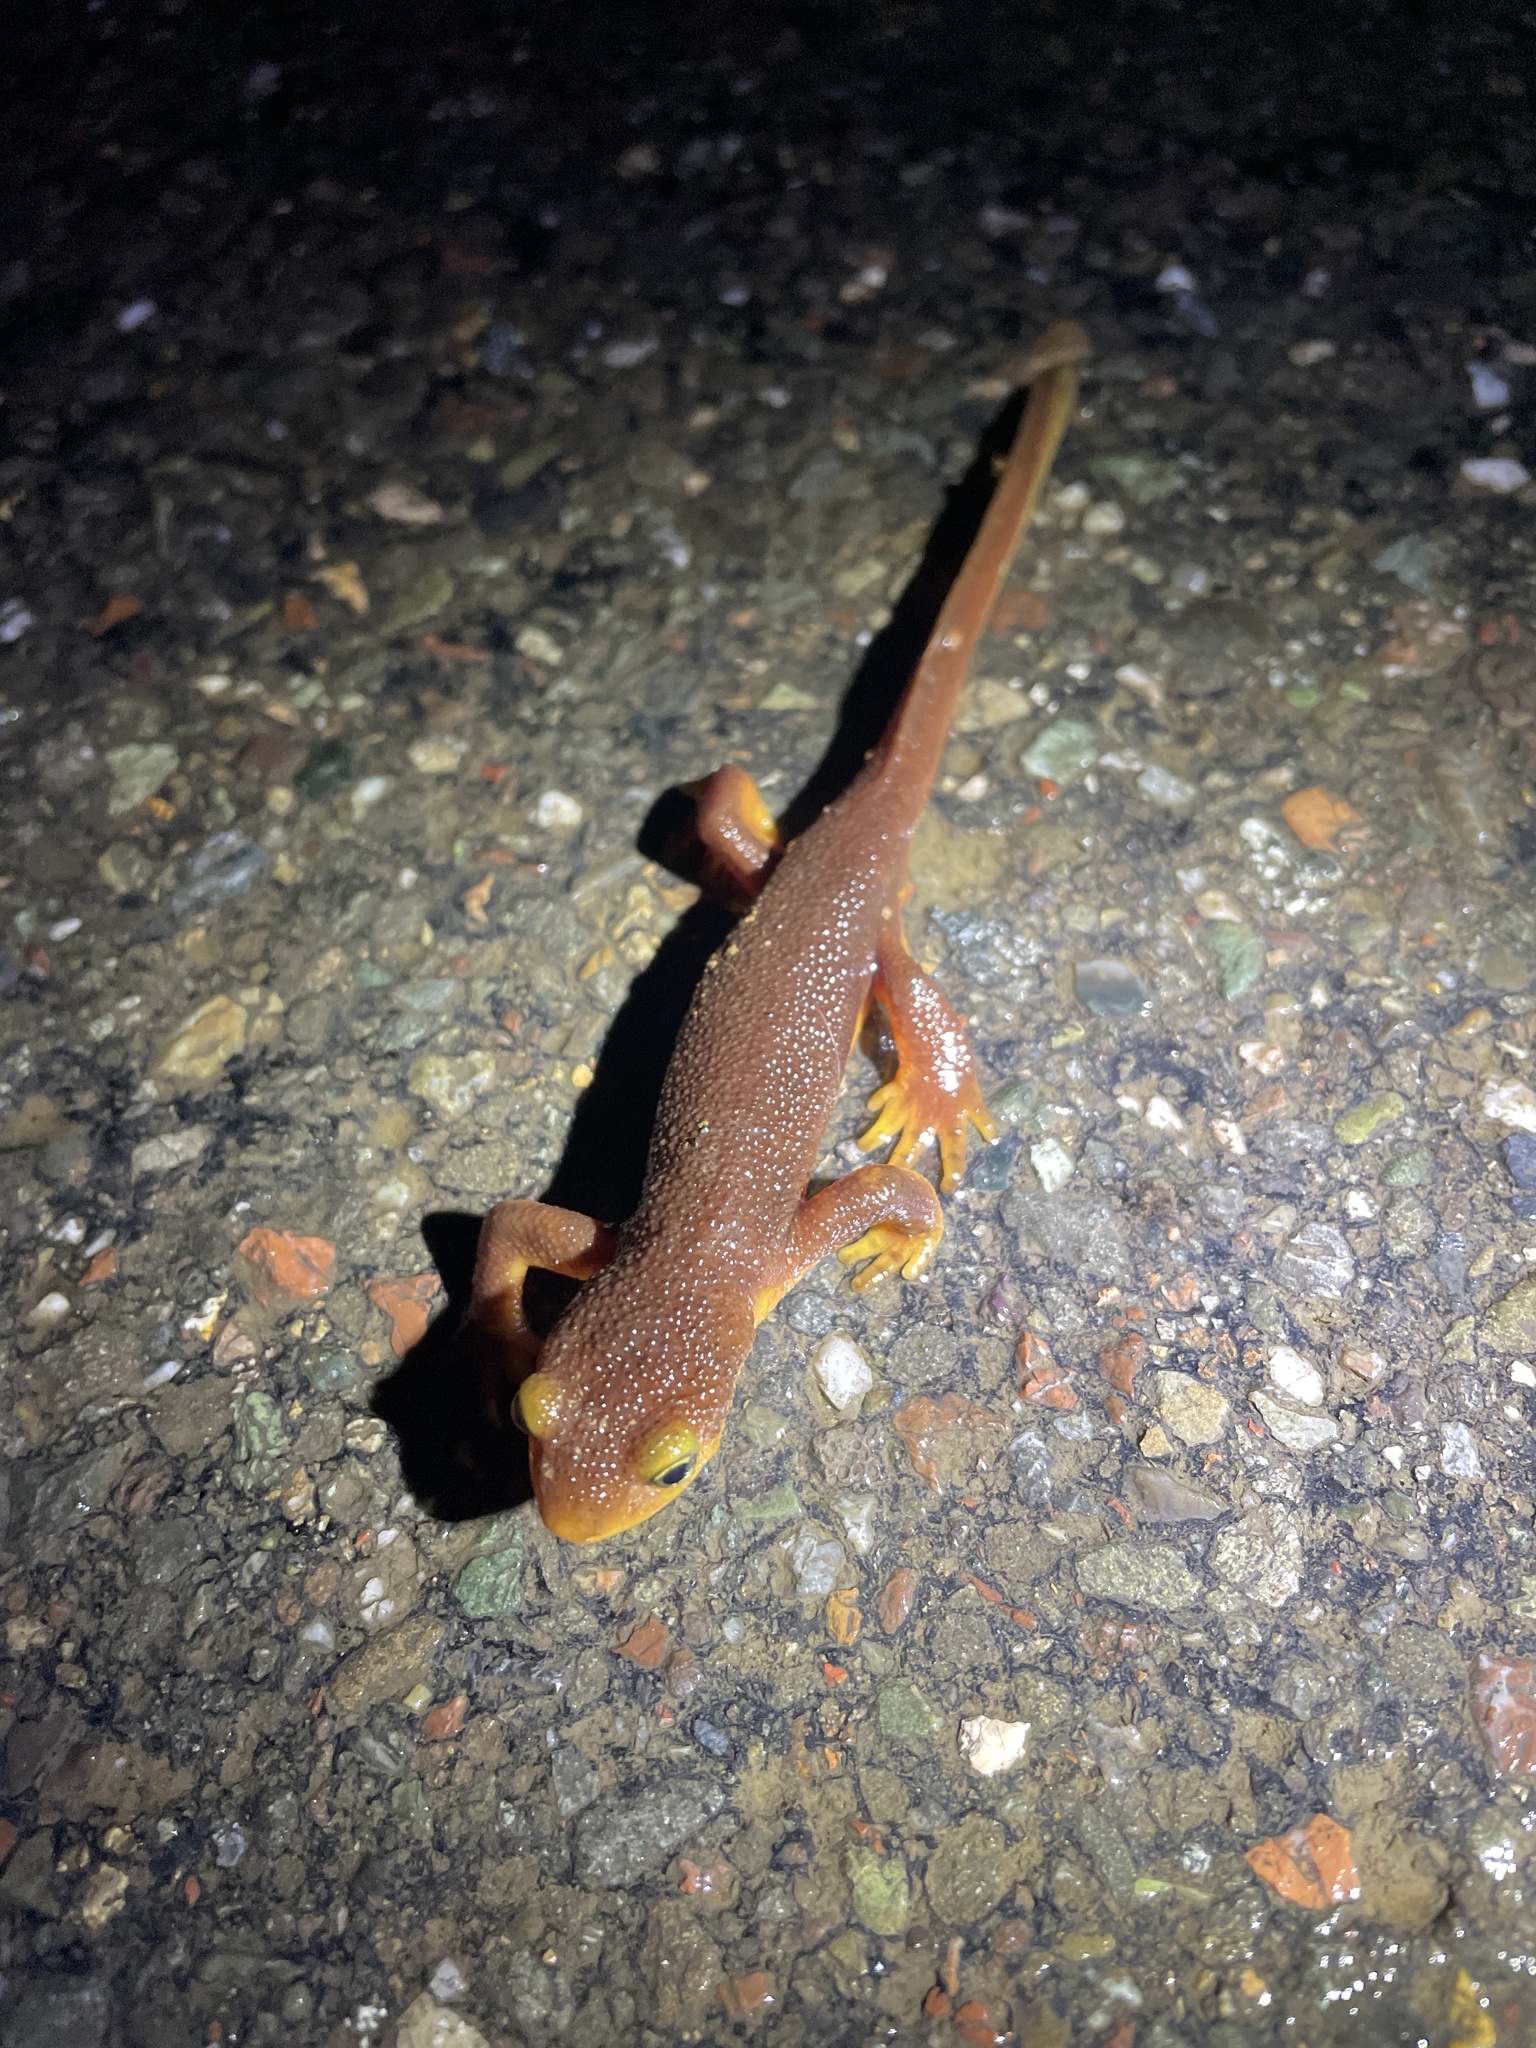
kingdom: Animalia
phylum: Chordata
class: Amphibia
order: Caudata
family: Salamandridae
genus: Taricha
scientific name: Taricha torosa
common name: California newt
